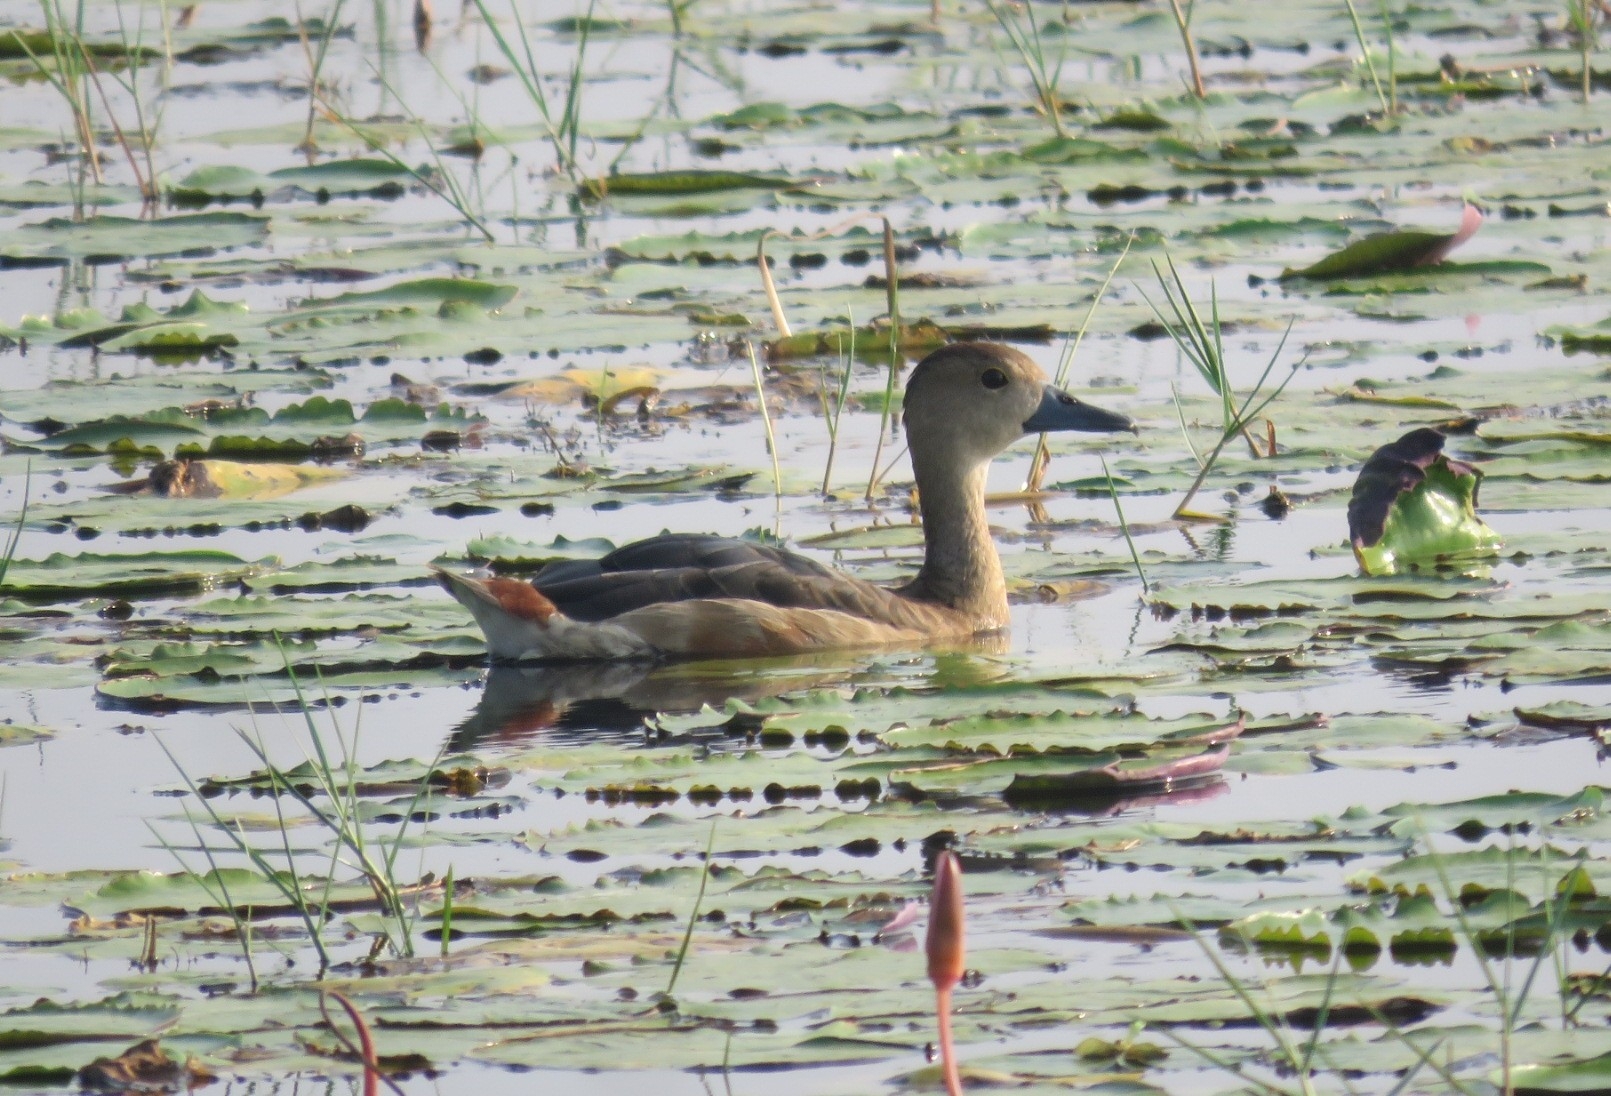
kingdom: Animalia
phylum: Chordata
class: Aves
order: Anseriformes
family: Anatidae
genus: Dendrocygna
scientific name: Dendrocygna javanica
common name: Lesser whistling-duck
